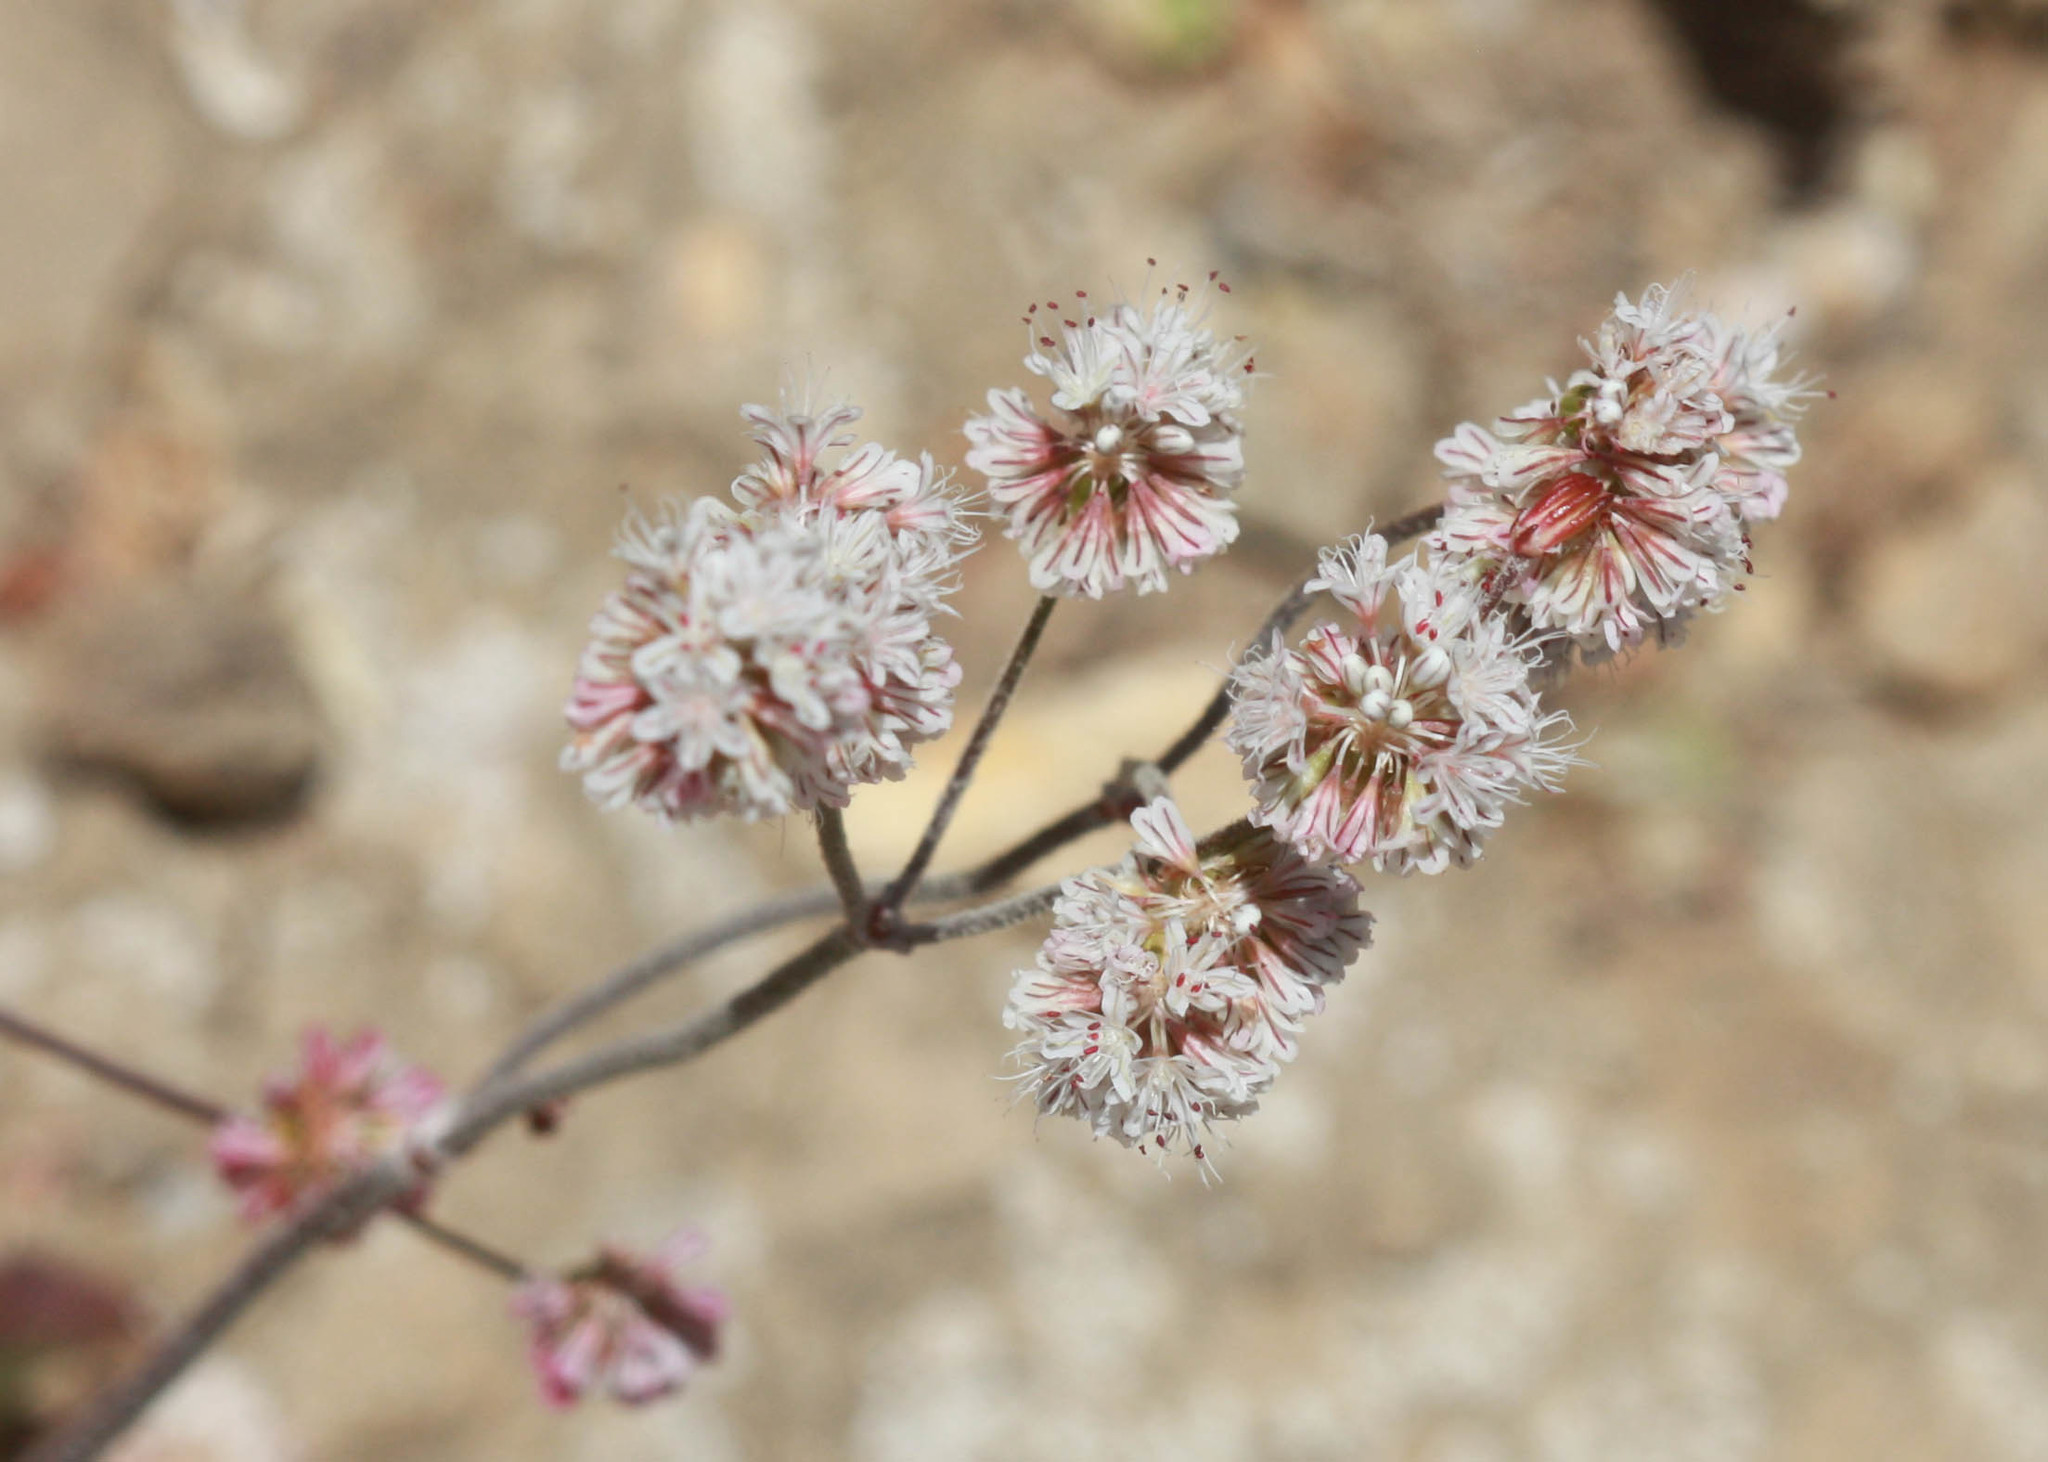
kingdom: Plantae
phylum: Tracheophyta
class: Magnoliopsida
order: Caryophyllales
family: Polygonaceae
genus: Eriogonum
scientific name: Eriogonum nudum
